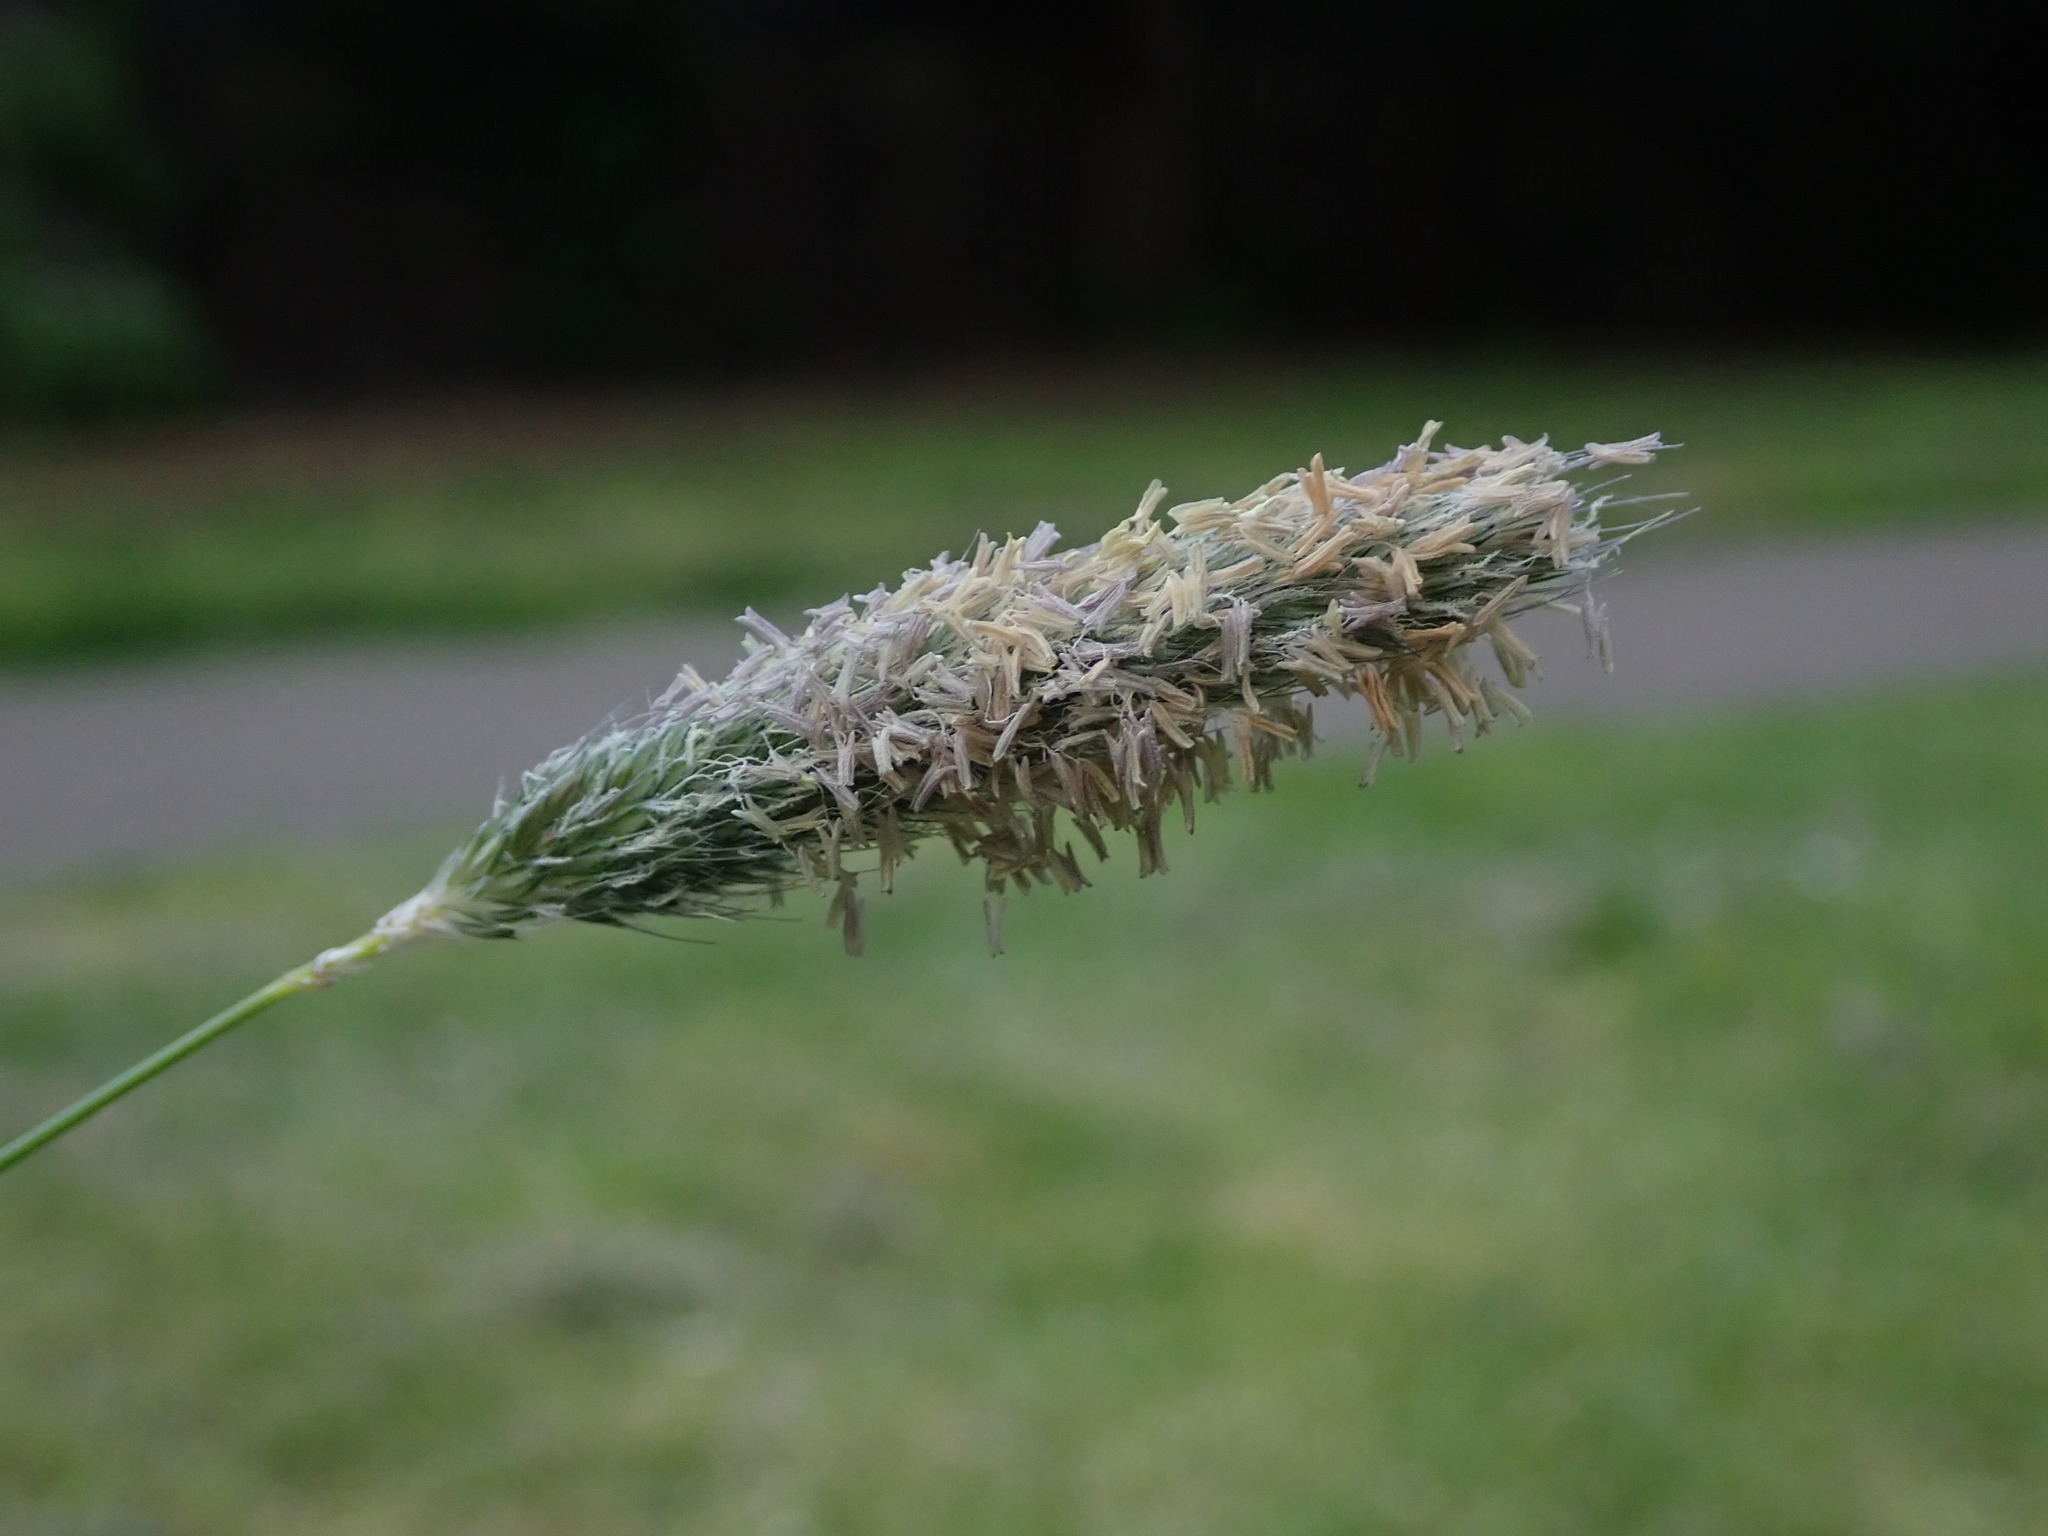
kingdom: Plantae
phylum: Tracheophyta
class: Liliopsida
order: Poales
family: Poaceae
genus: Alopecurus
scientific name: Alopecurus pratensis
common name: Meadow foxtail
